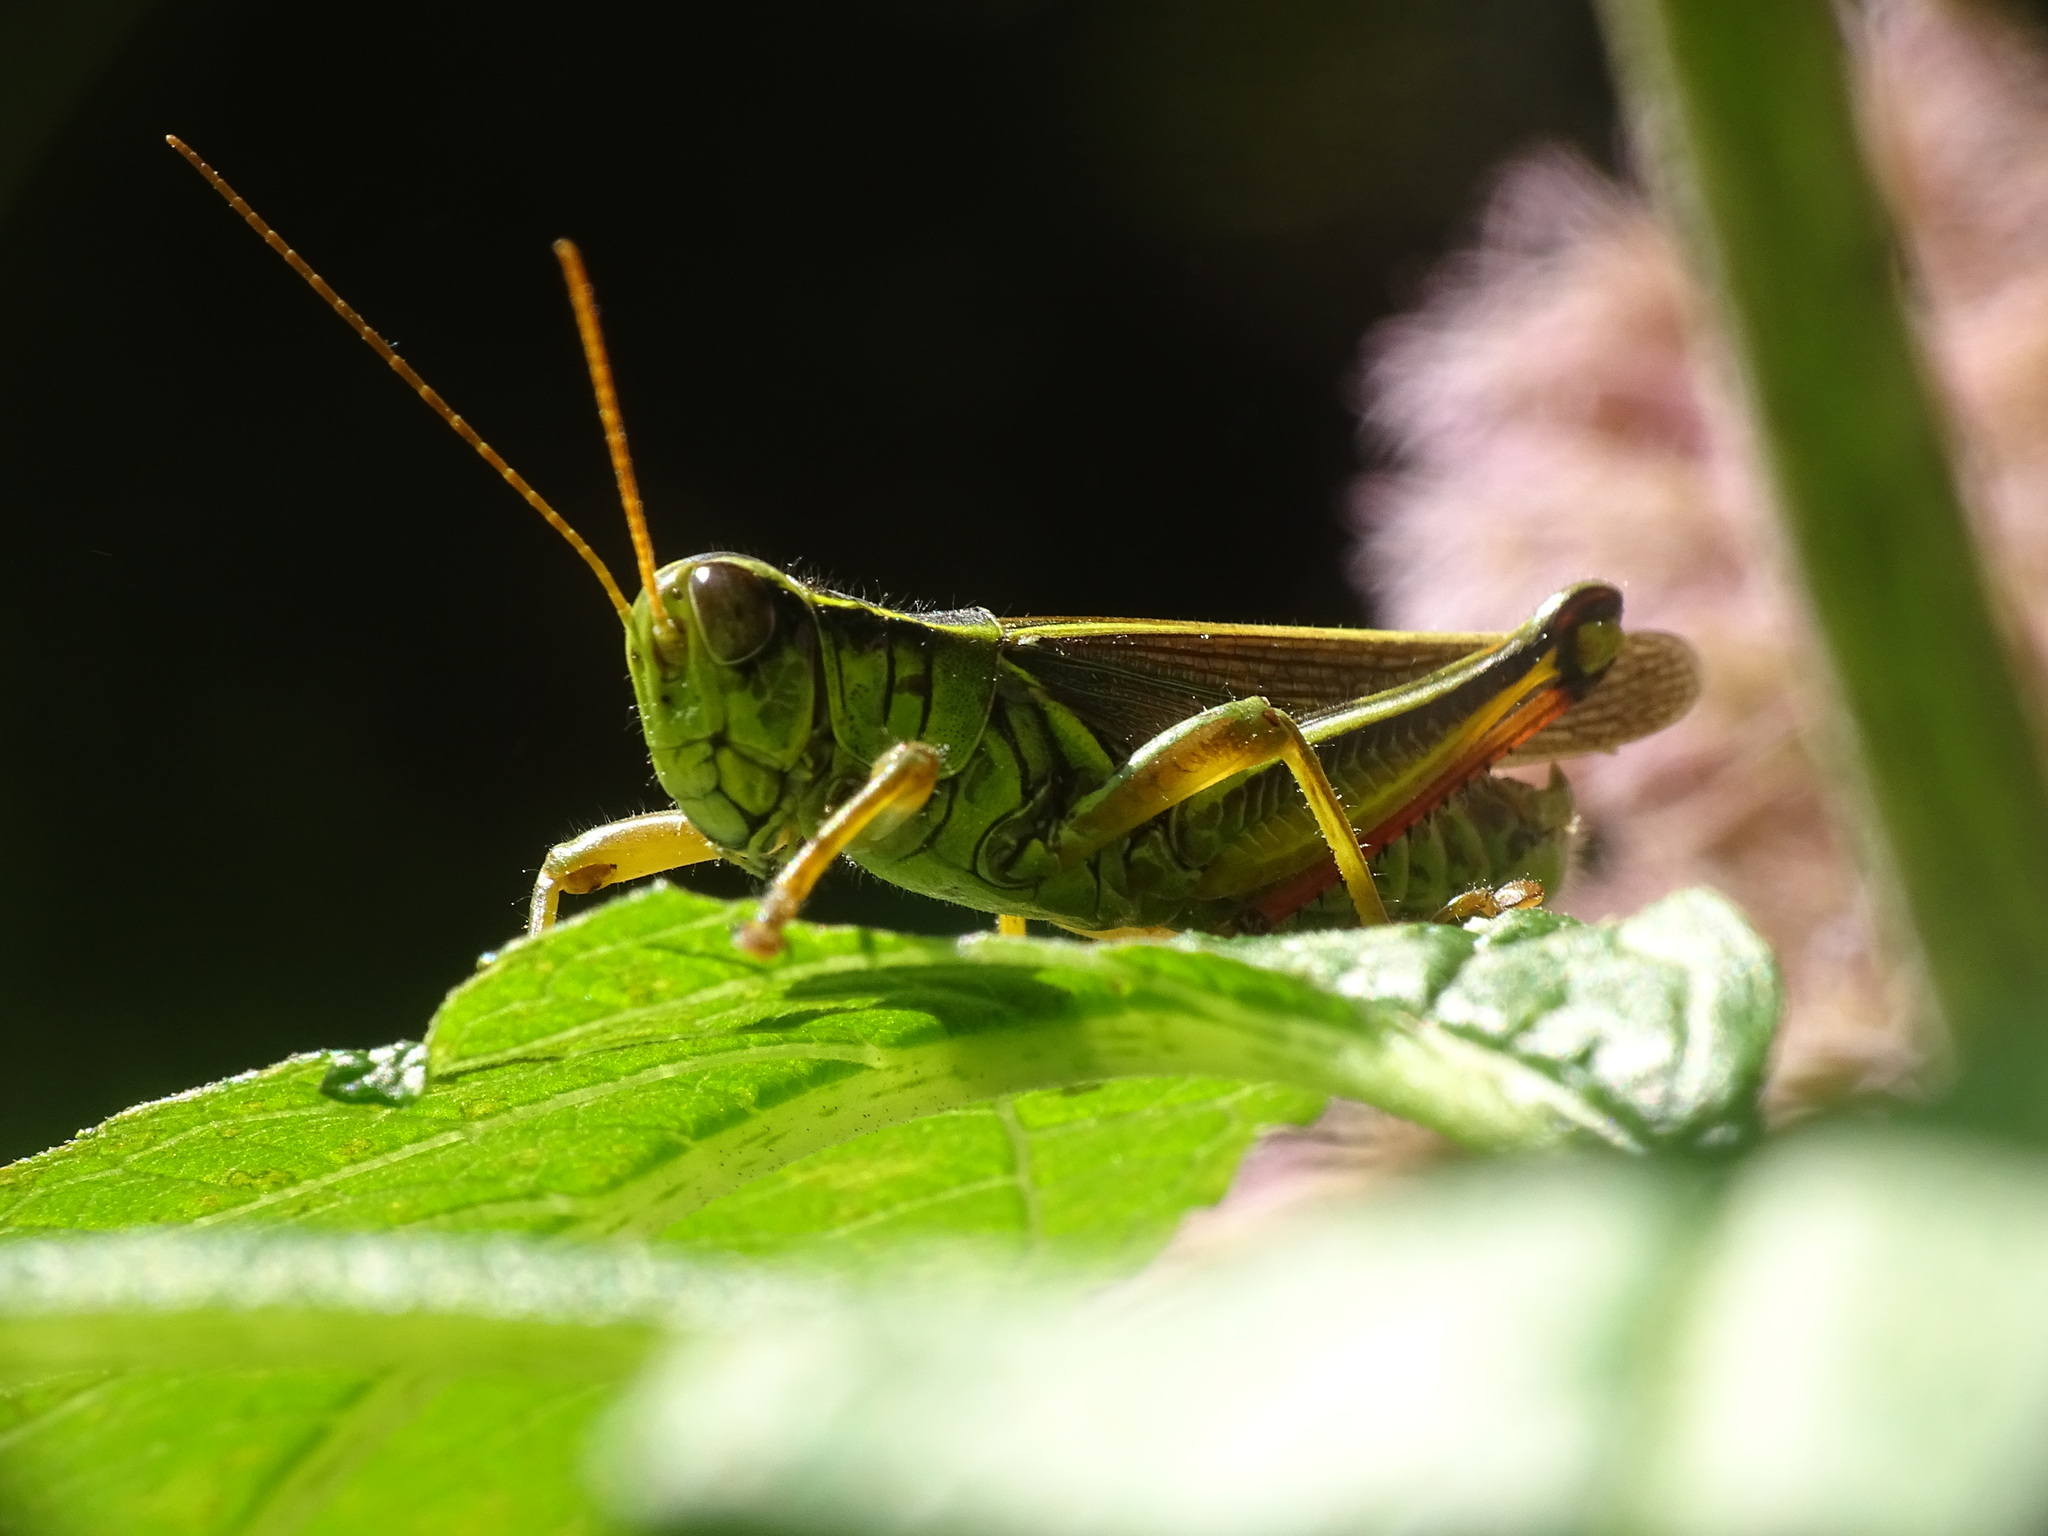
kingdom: Animalia
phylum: Arthropoda
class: Insecta
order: Orthoptera
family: Acrididae
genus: Melanoplus
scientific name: Melanoplus bivittatus
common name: Two-striped grasshopper
